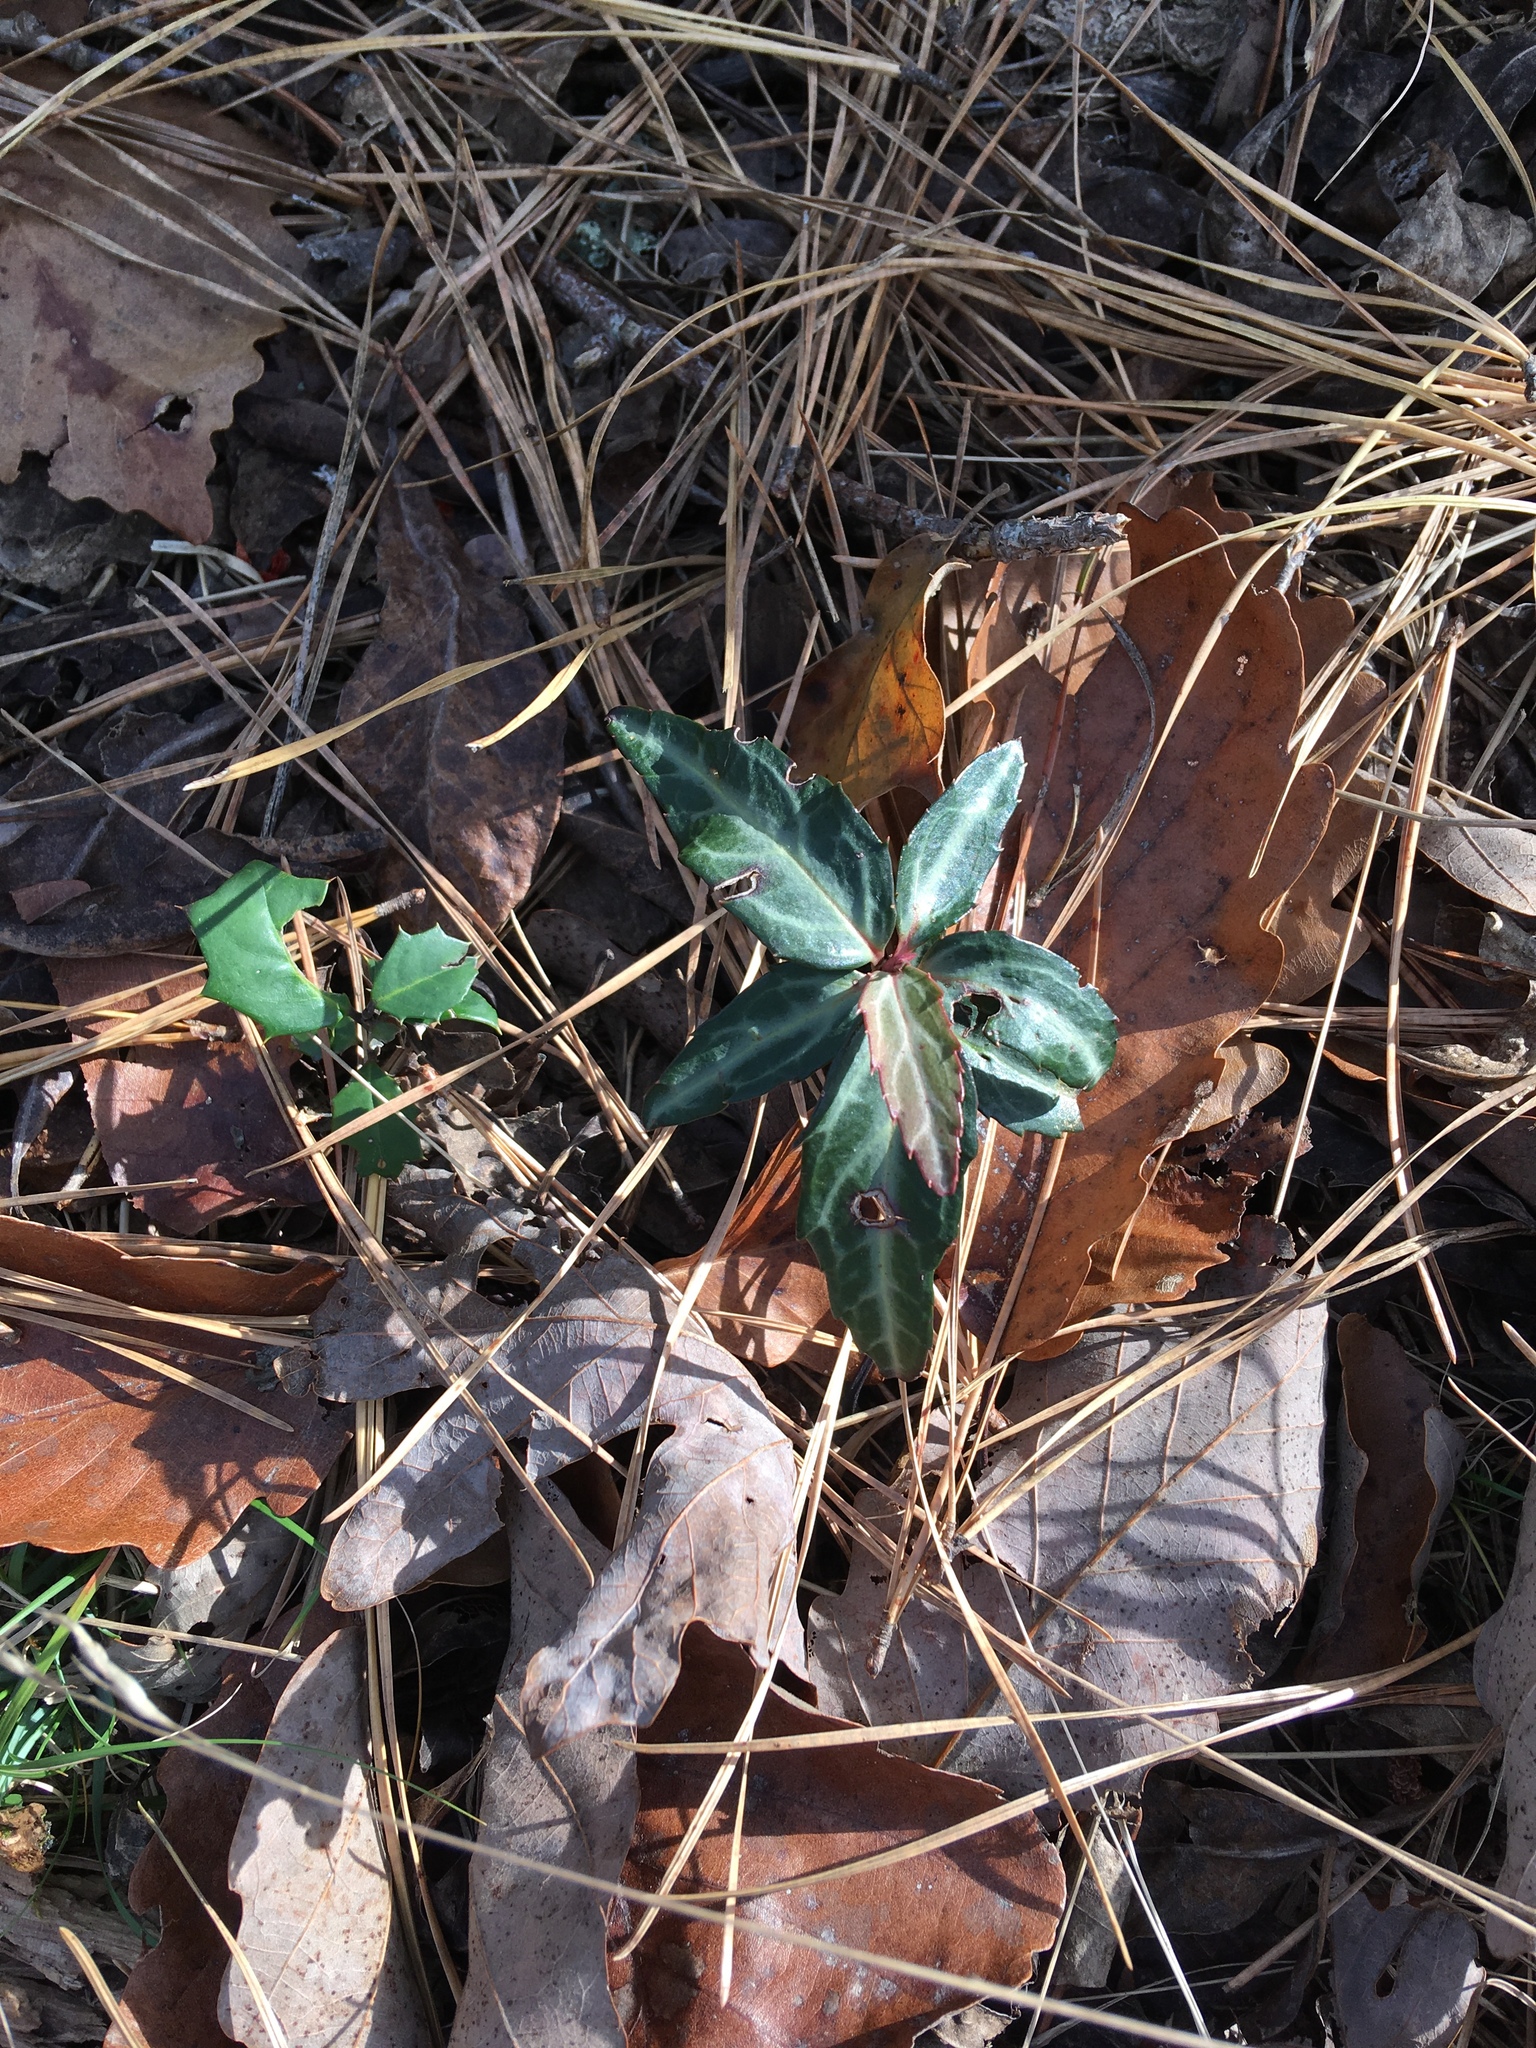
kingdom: Plantae
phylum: Tracheophyta
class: Magnoliopsida
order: Ericales
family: Ericaceae
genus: Chimaphila
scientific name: Chimaphila maculata
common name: Spotted pipsissewa
